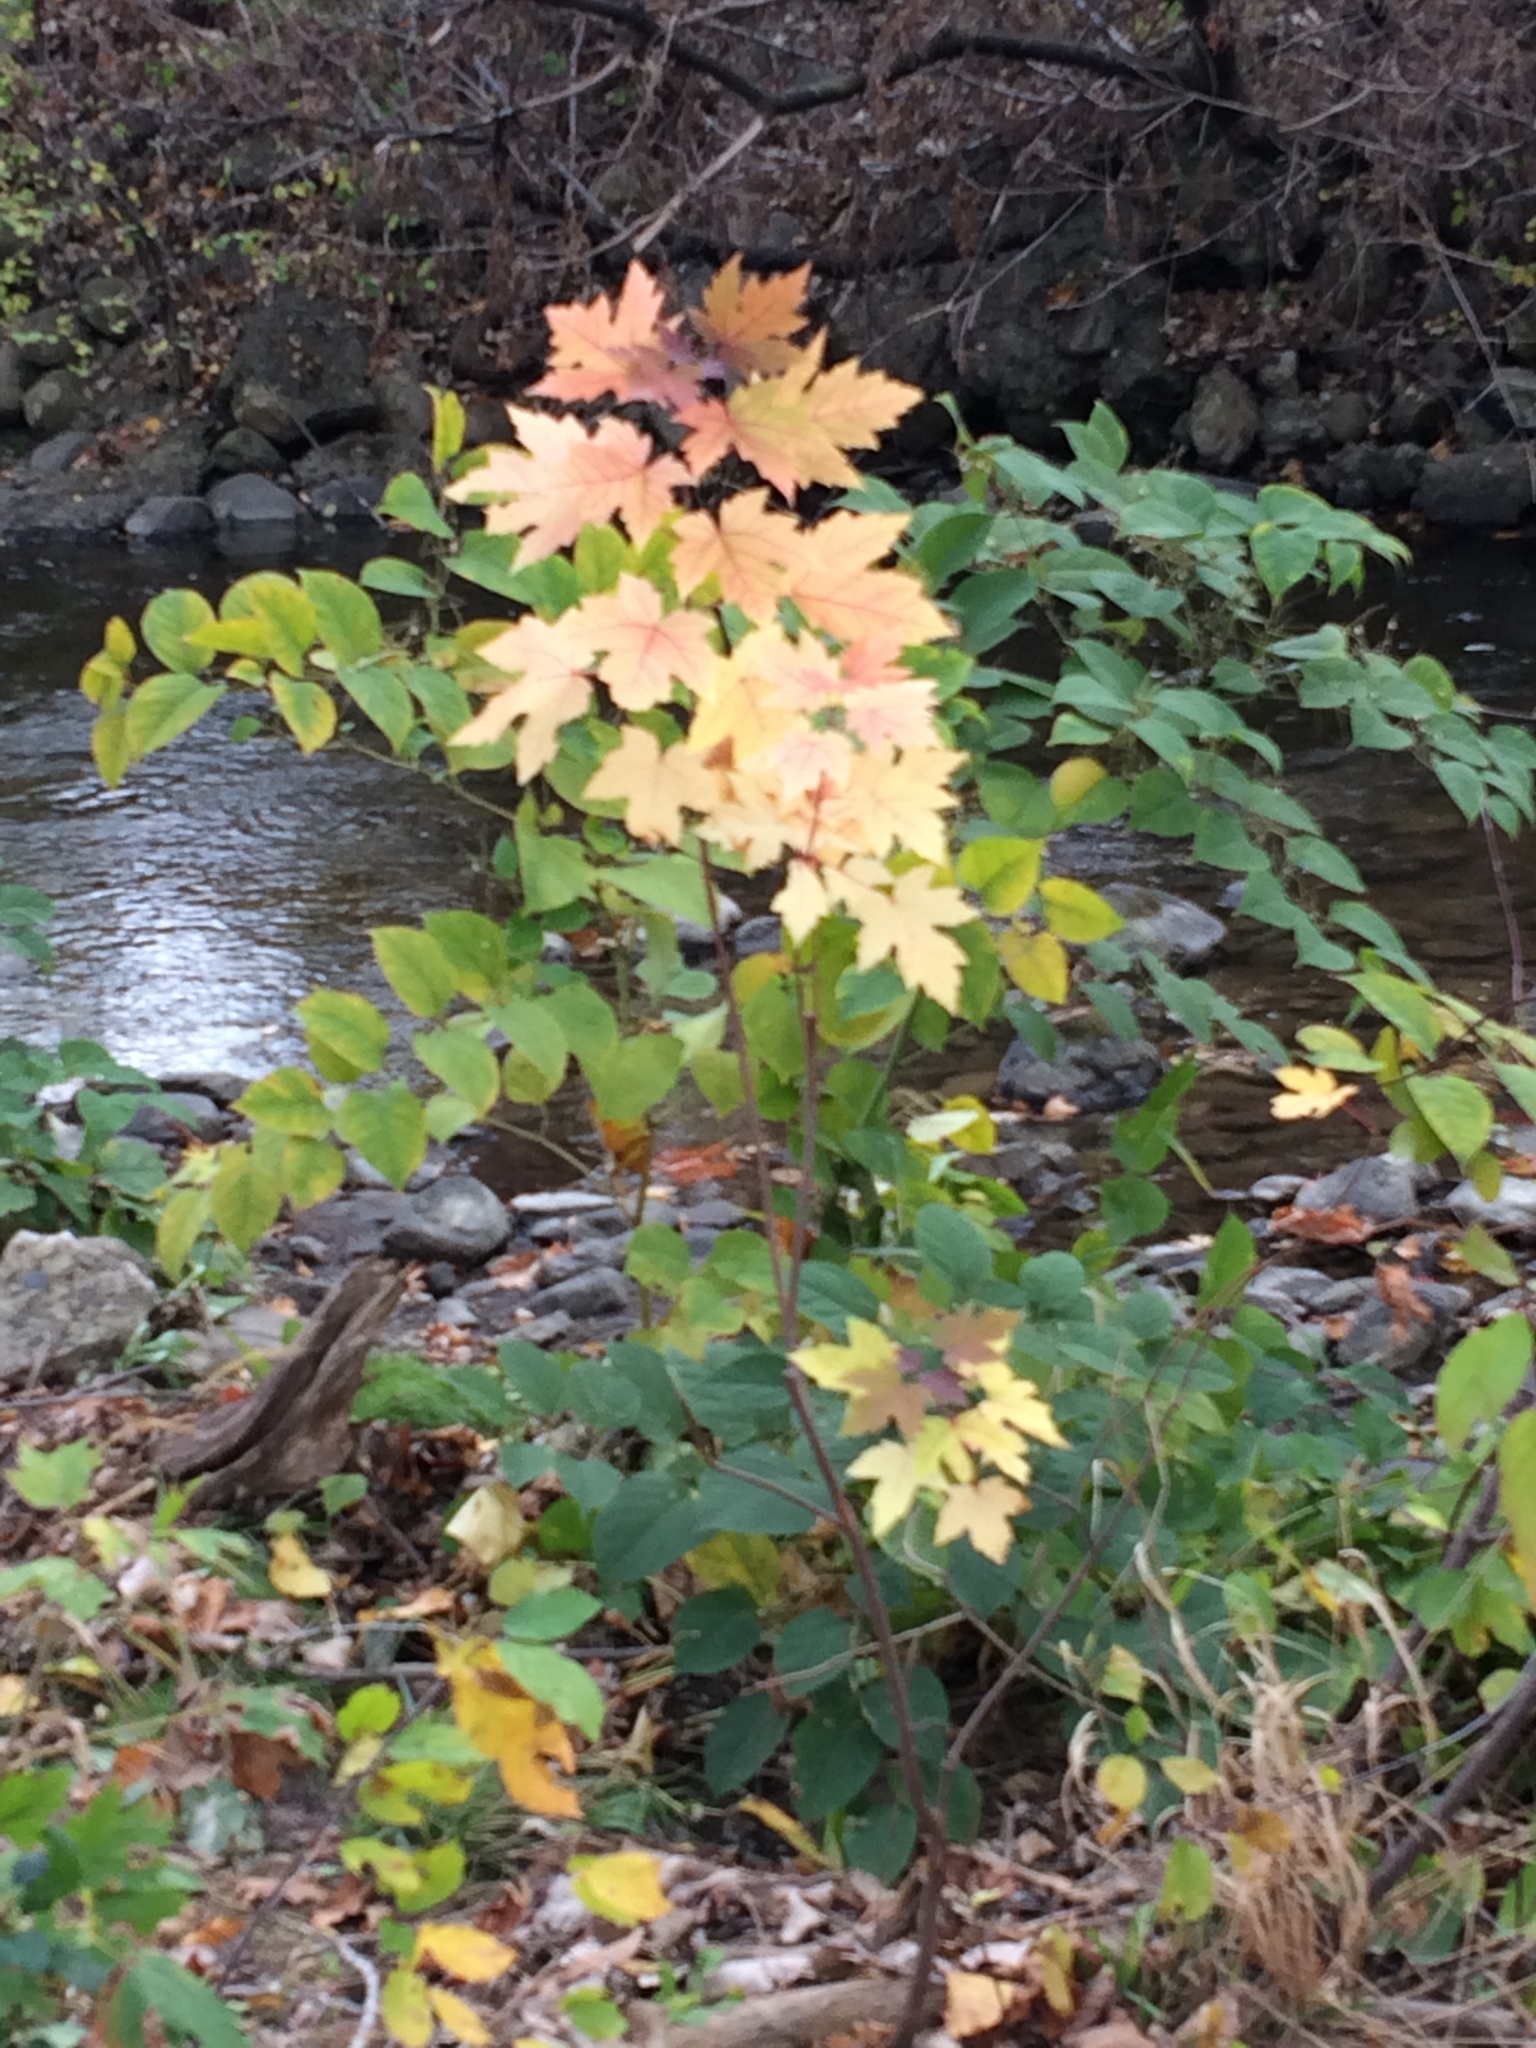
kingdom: Plantae
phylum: Tracheophyta
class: Magnoliopsida
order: Sapindales
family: Sapindaceae
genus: Acer
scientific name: Acer saccharinum
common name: Silver maple
